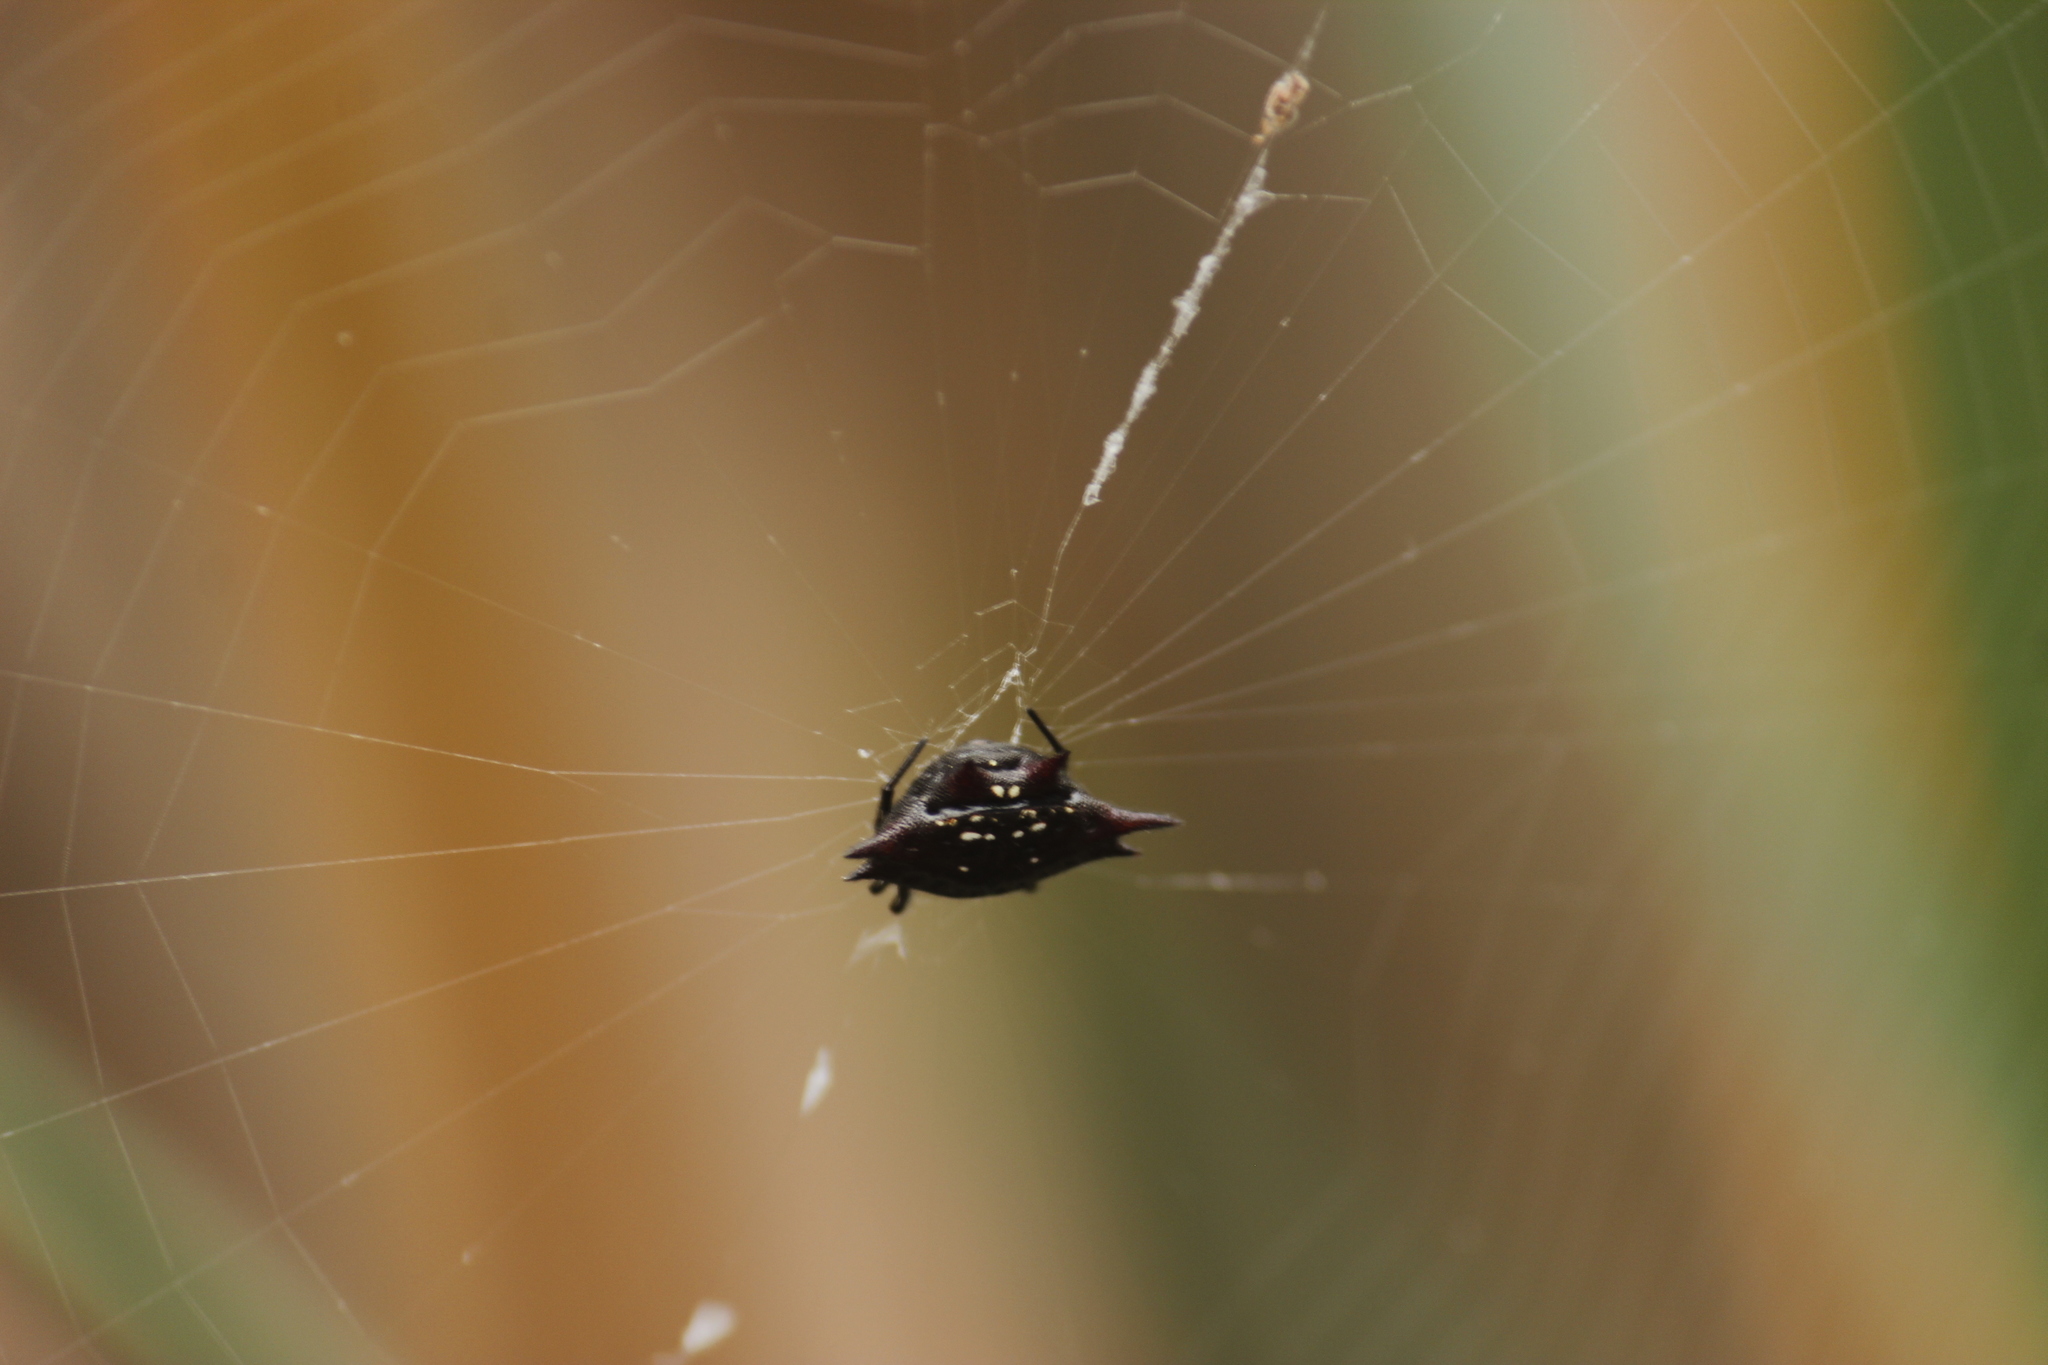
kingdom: Animalia
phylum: Arthropoda
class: Arachnida
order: Araneae
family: Araneidae
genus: Gasteracantha
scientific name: Gasteracantha cancriformis
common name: Orb weavers
